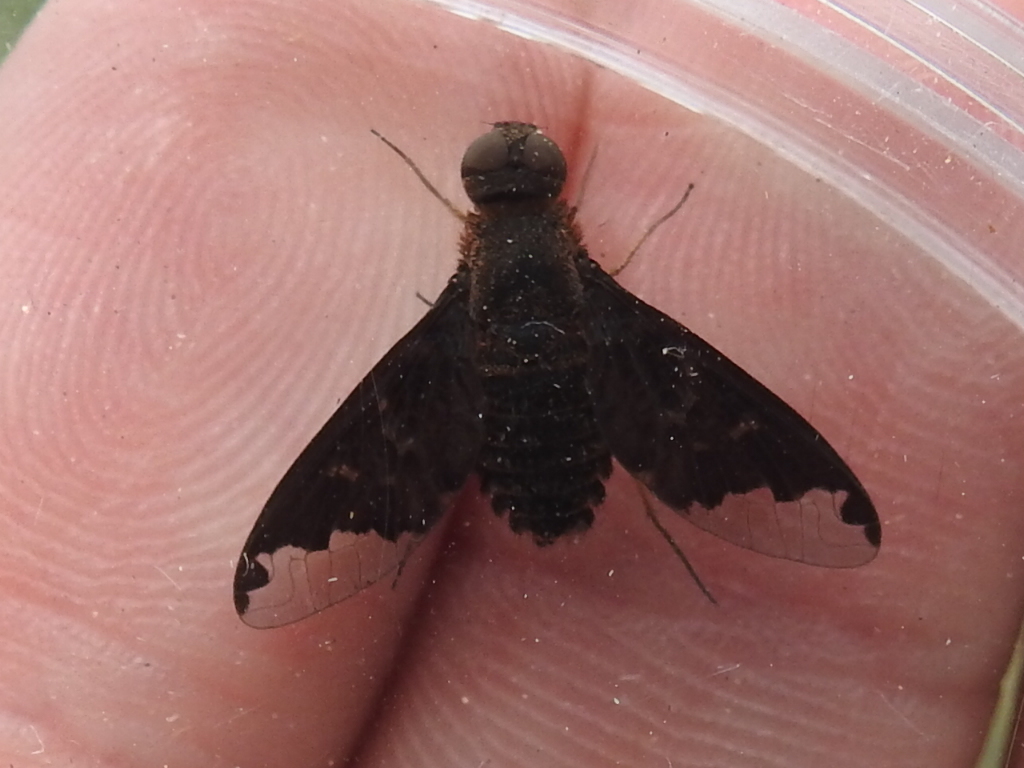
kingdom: Animalia
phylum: Arthropoda
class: Insecta
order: Diptera
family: Bombyliidae
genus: Hemipenthes
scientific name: Hemipenthes sinuosus
